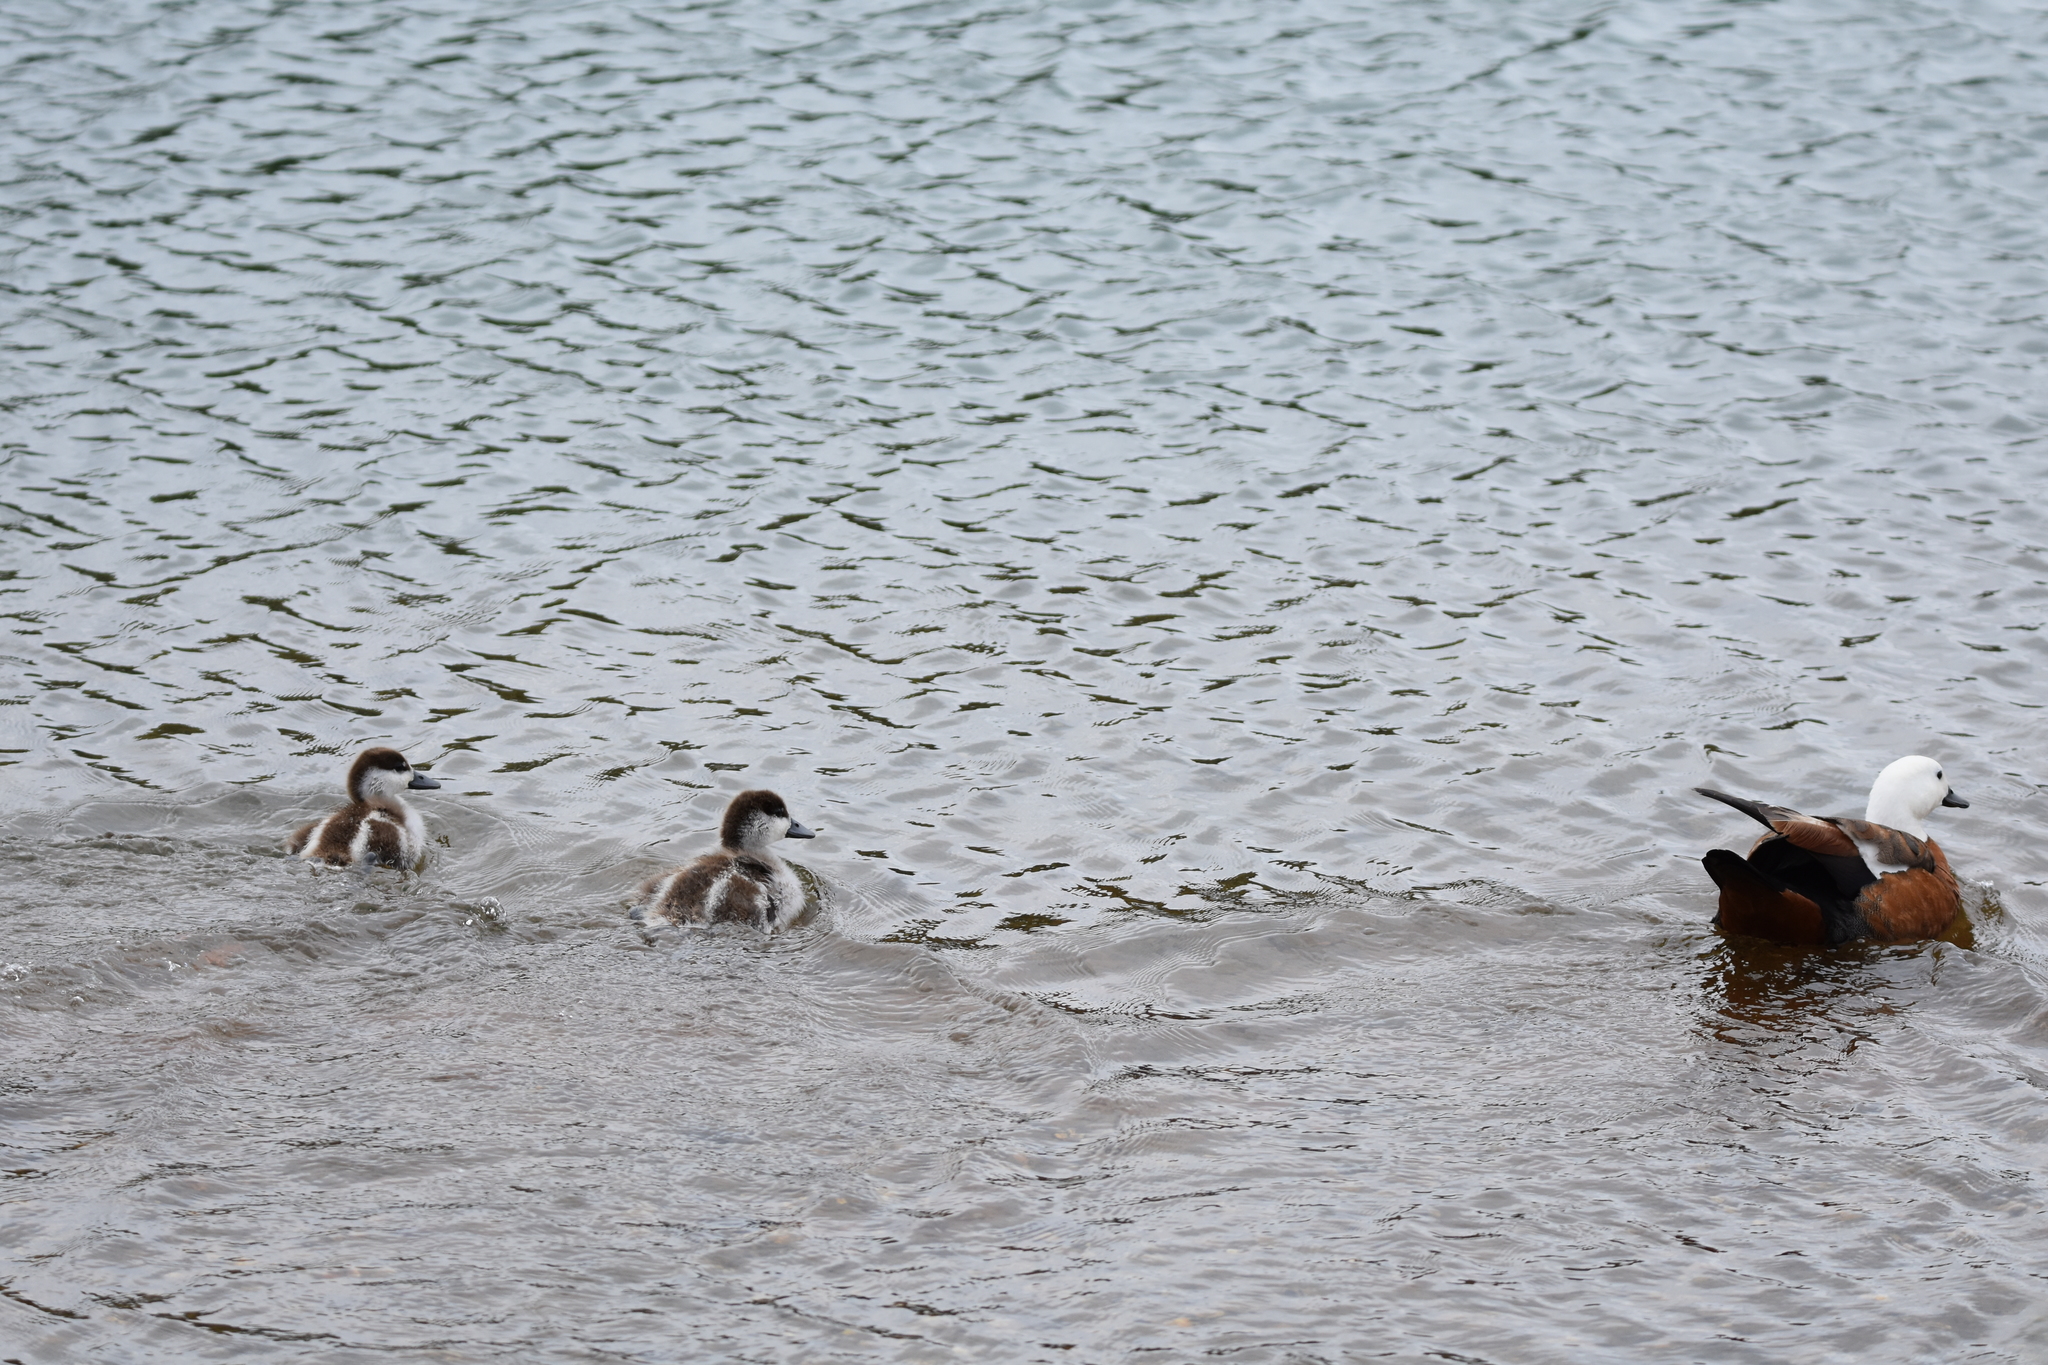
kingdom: Animalia
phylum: Chordata
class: Aves
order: Anseriformes
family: Anatidae
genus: Tadorna
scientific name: Tadorna variegata
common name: Paradise shelduck
